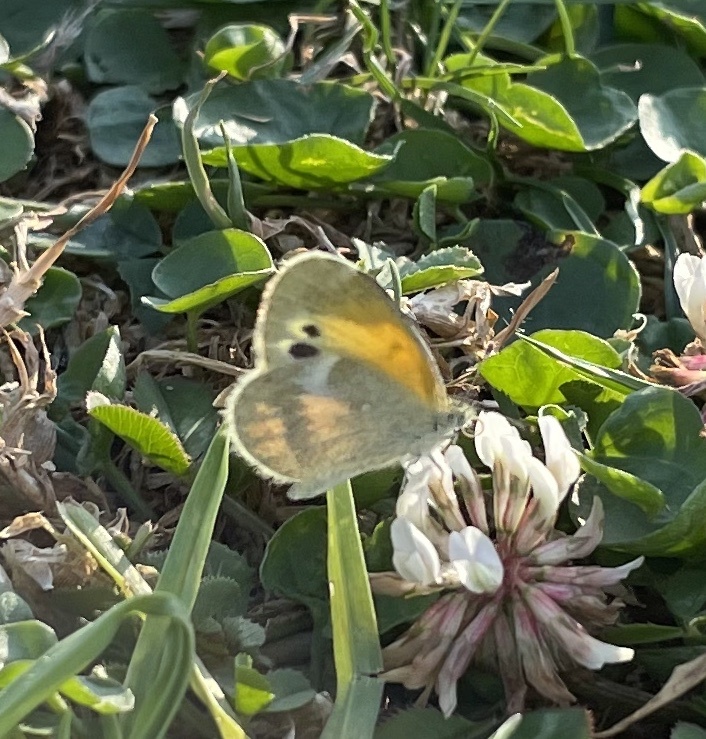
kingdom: Animalia
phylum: Arthropoda
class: Insecta
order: Lepidoptera
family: Pieridae
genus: Nathalis
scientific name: Nathalis iole
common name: Dainty sulphur
